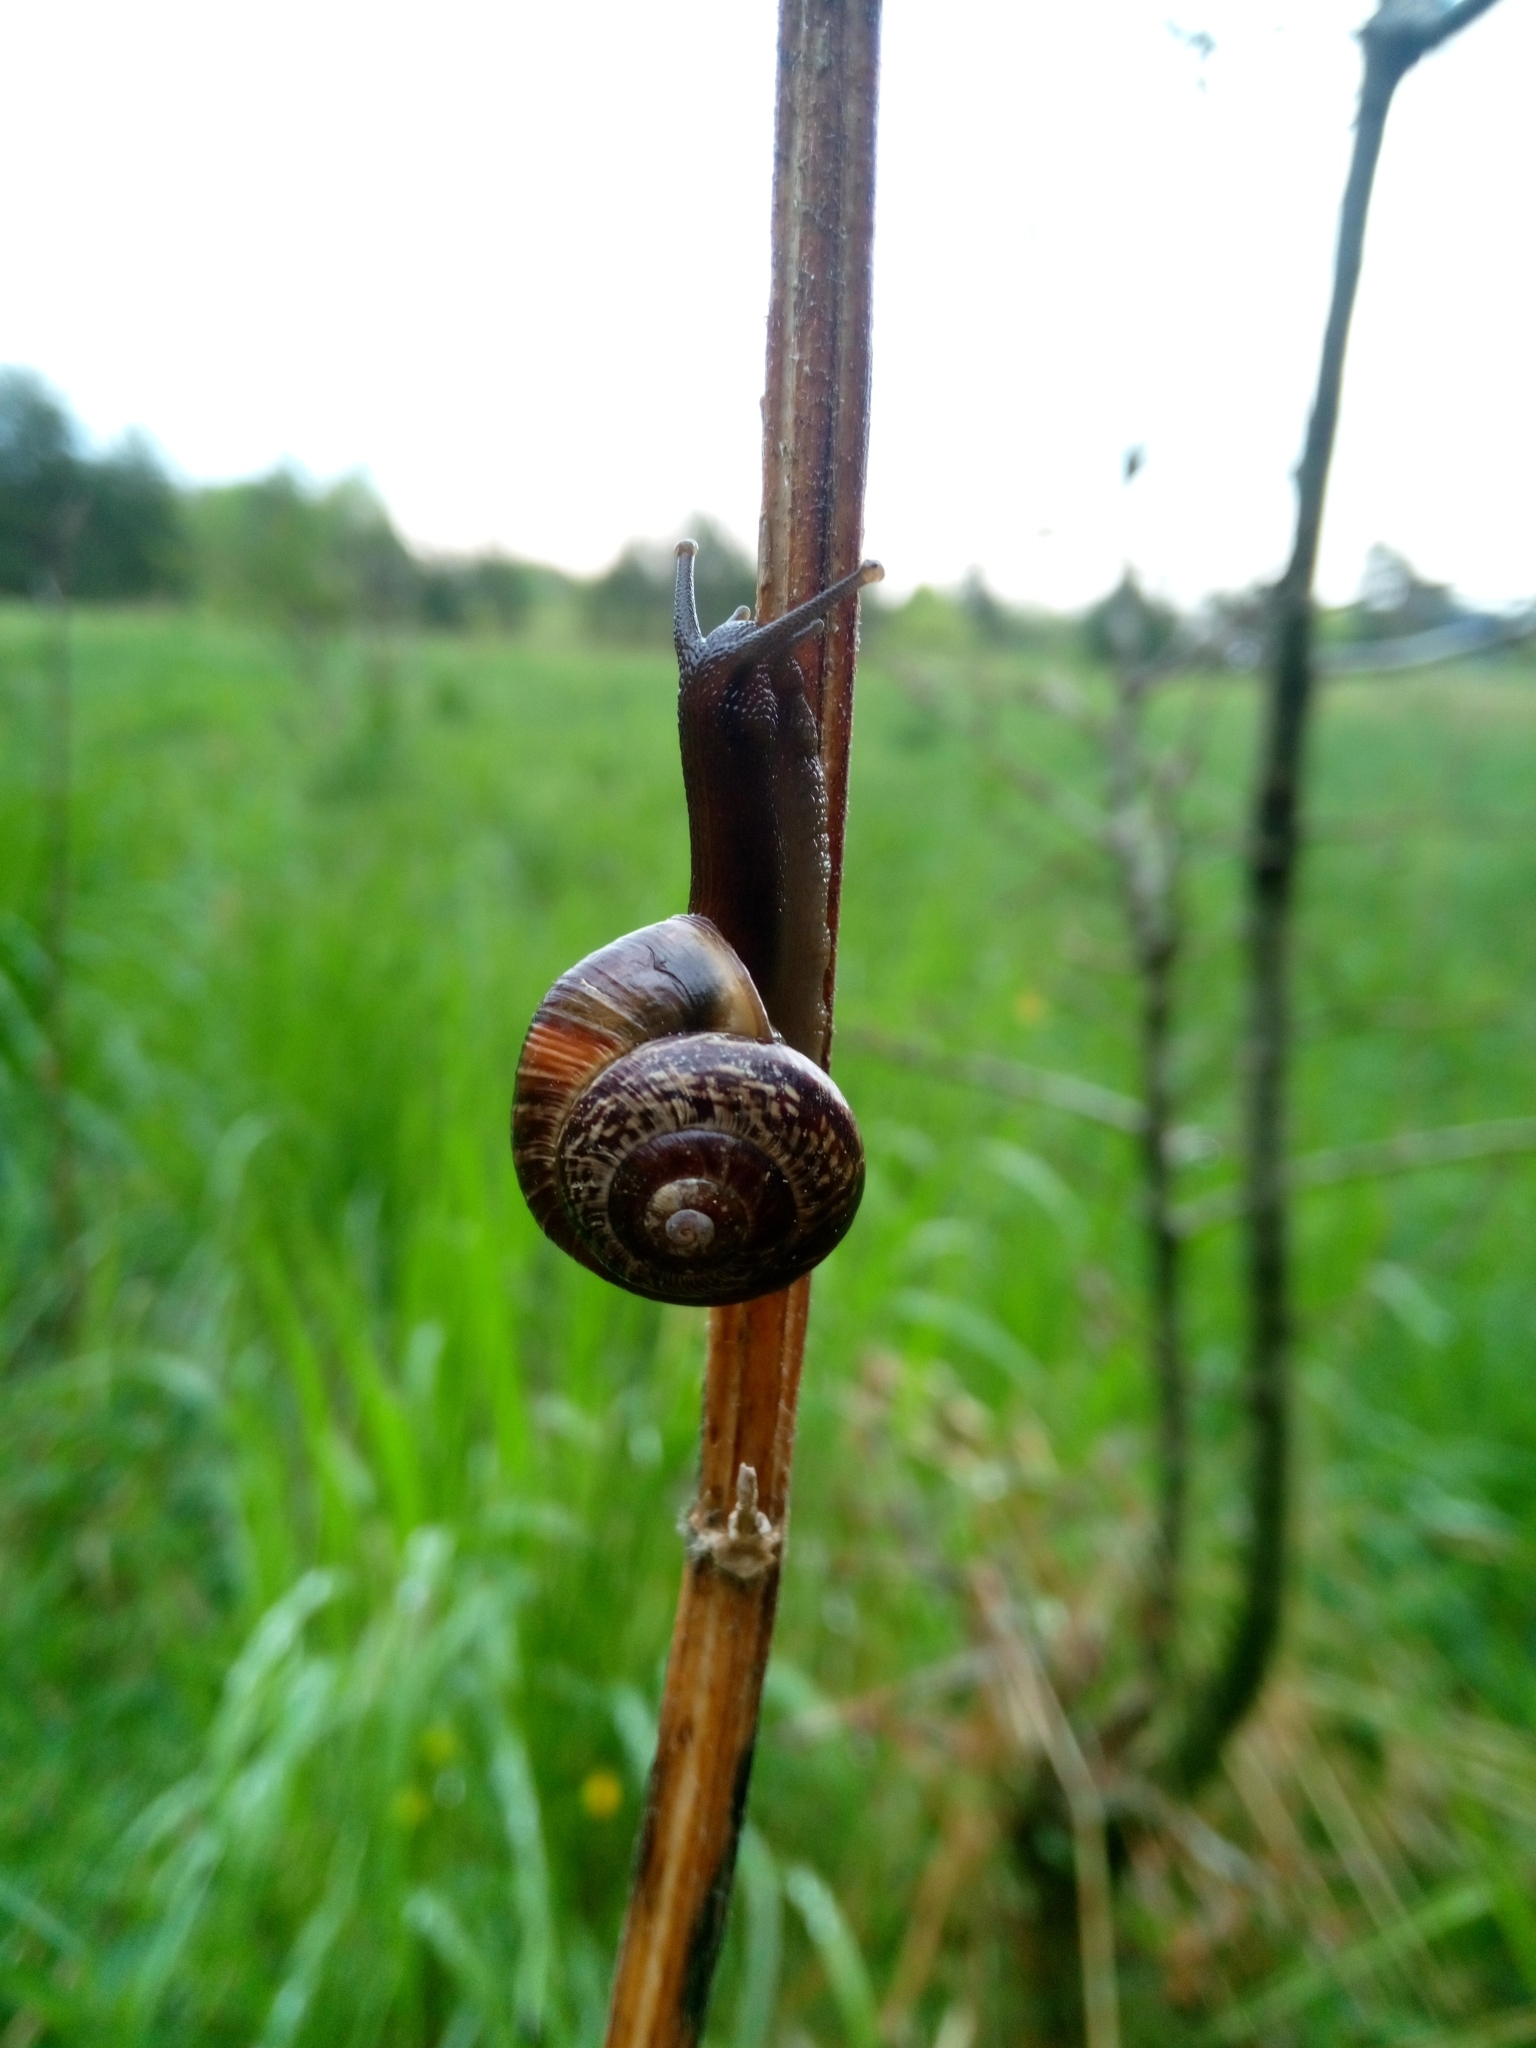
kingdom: Animalia
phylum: Mollusca
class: Gastropoda
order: Stylommatophora
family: Helicidae
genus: Arianta
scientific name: Arianta arbustorum
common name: Copse snail
